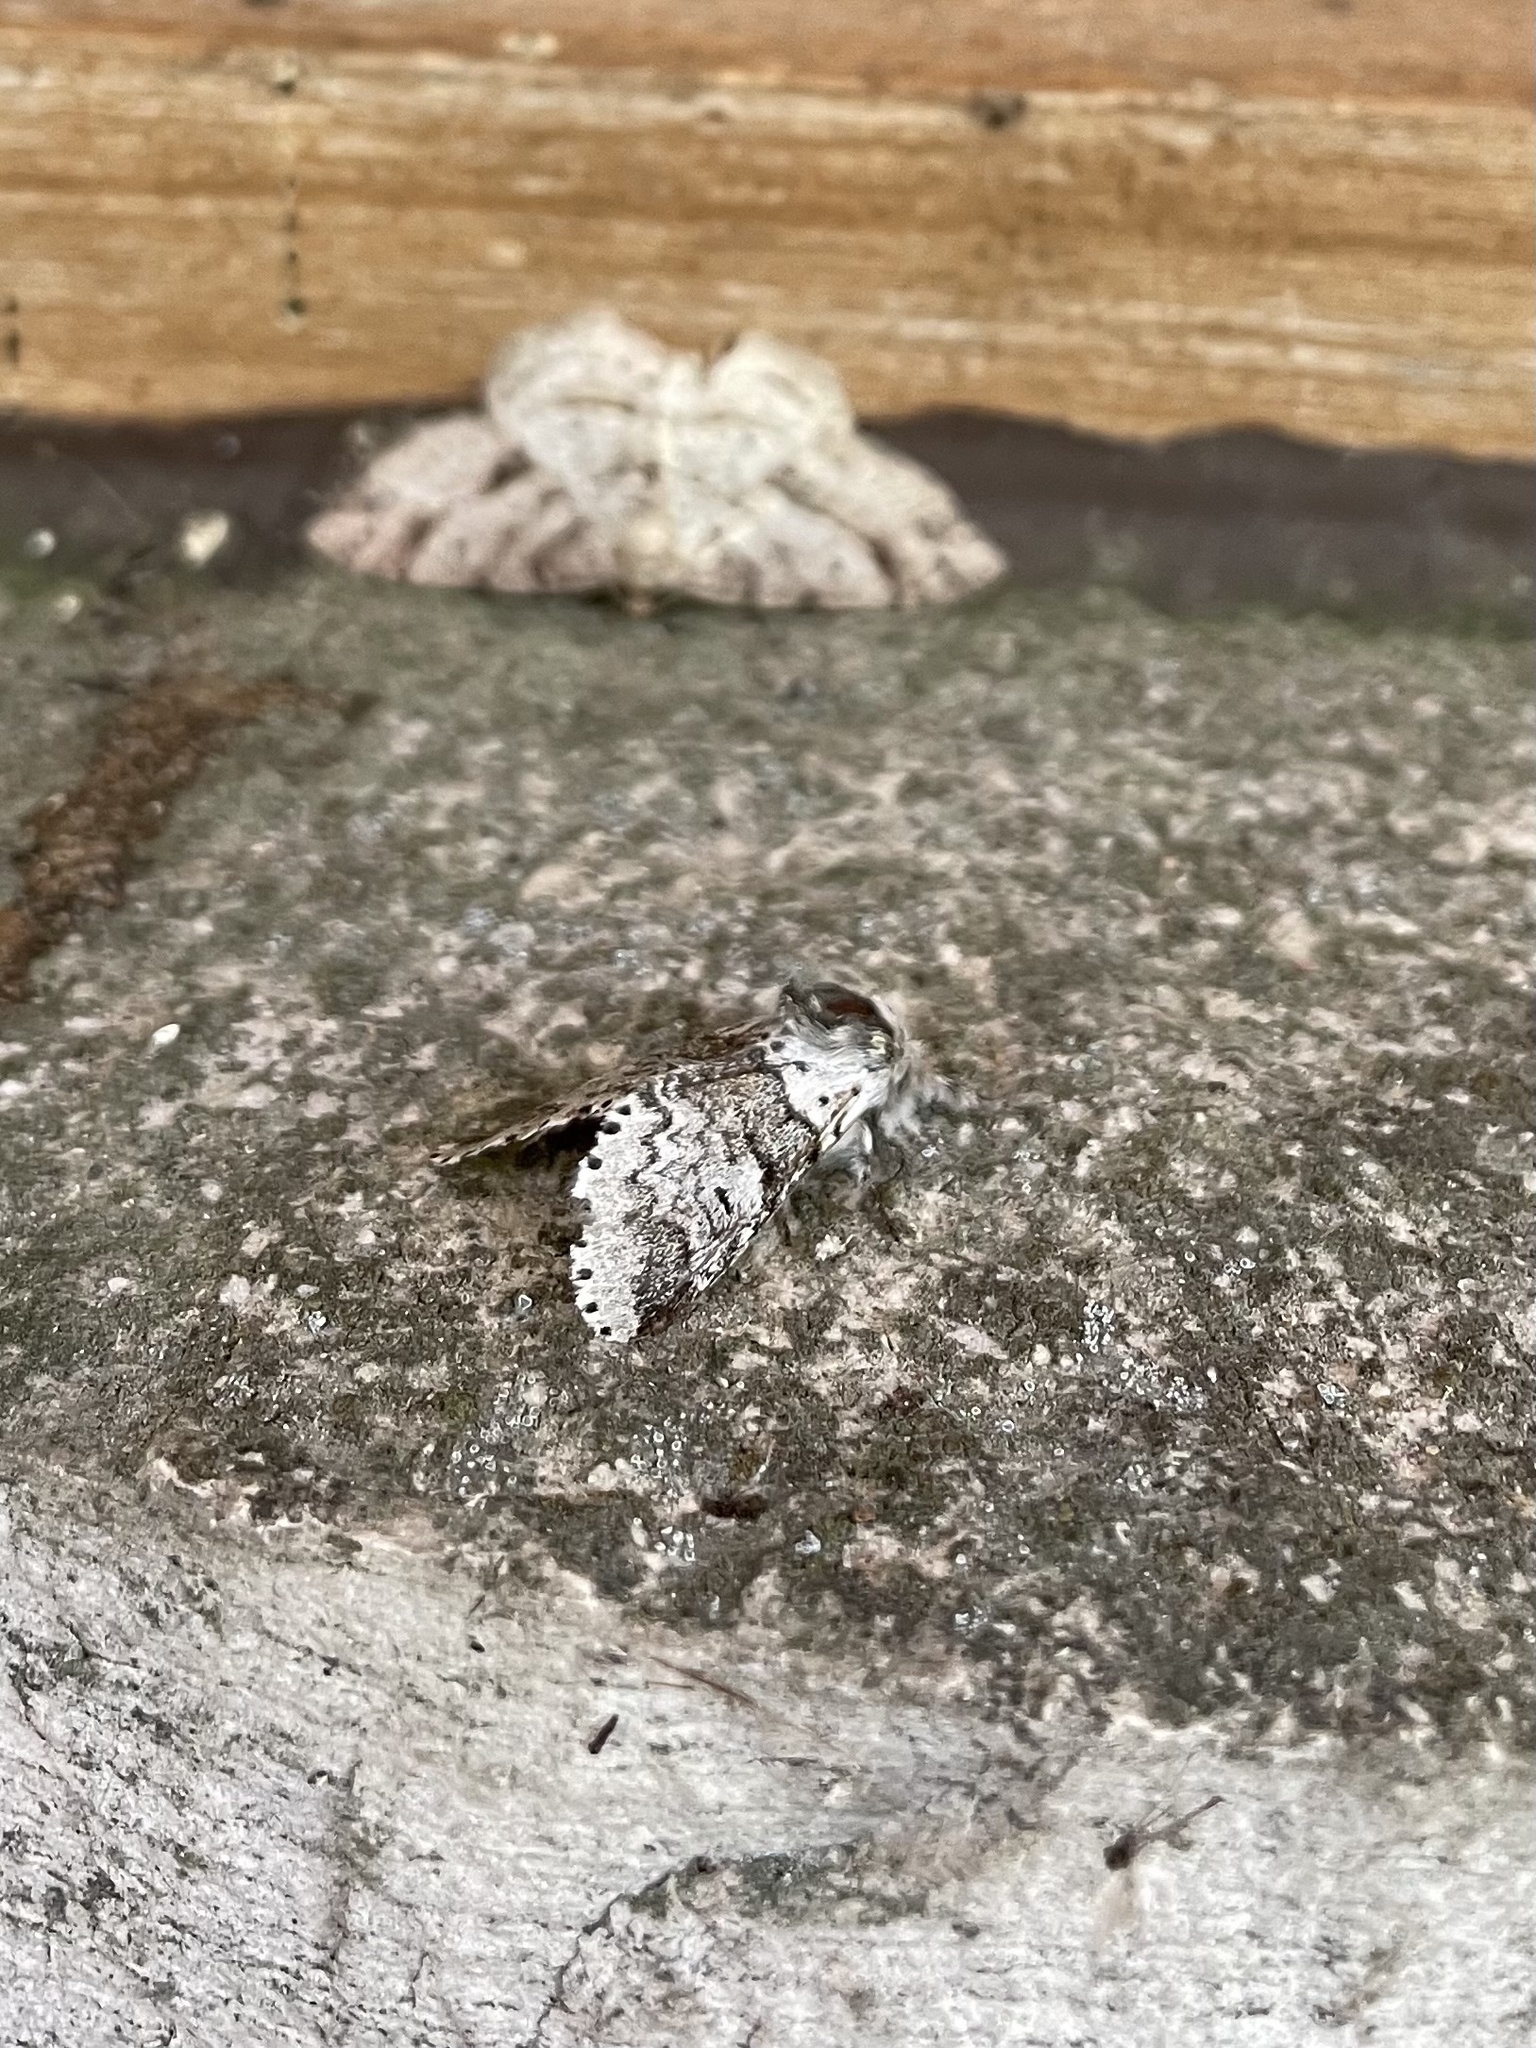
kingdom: Animalia
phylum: Arthropoda
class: Insecta
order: Lepidoptera
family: Notodontidae
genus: Furcula
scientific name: Furcula occidentalis
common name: Western furcula moth
